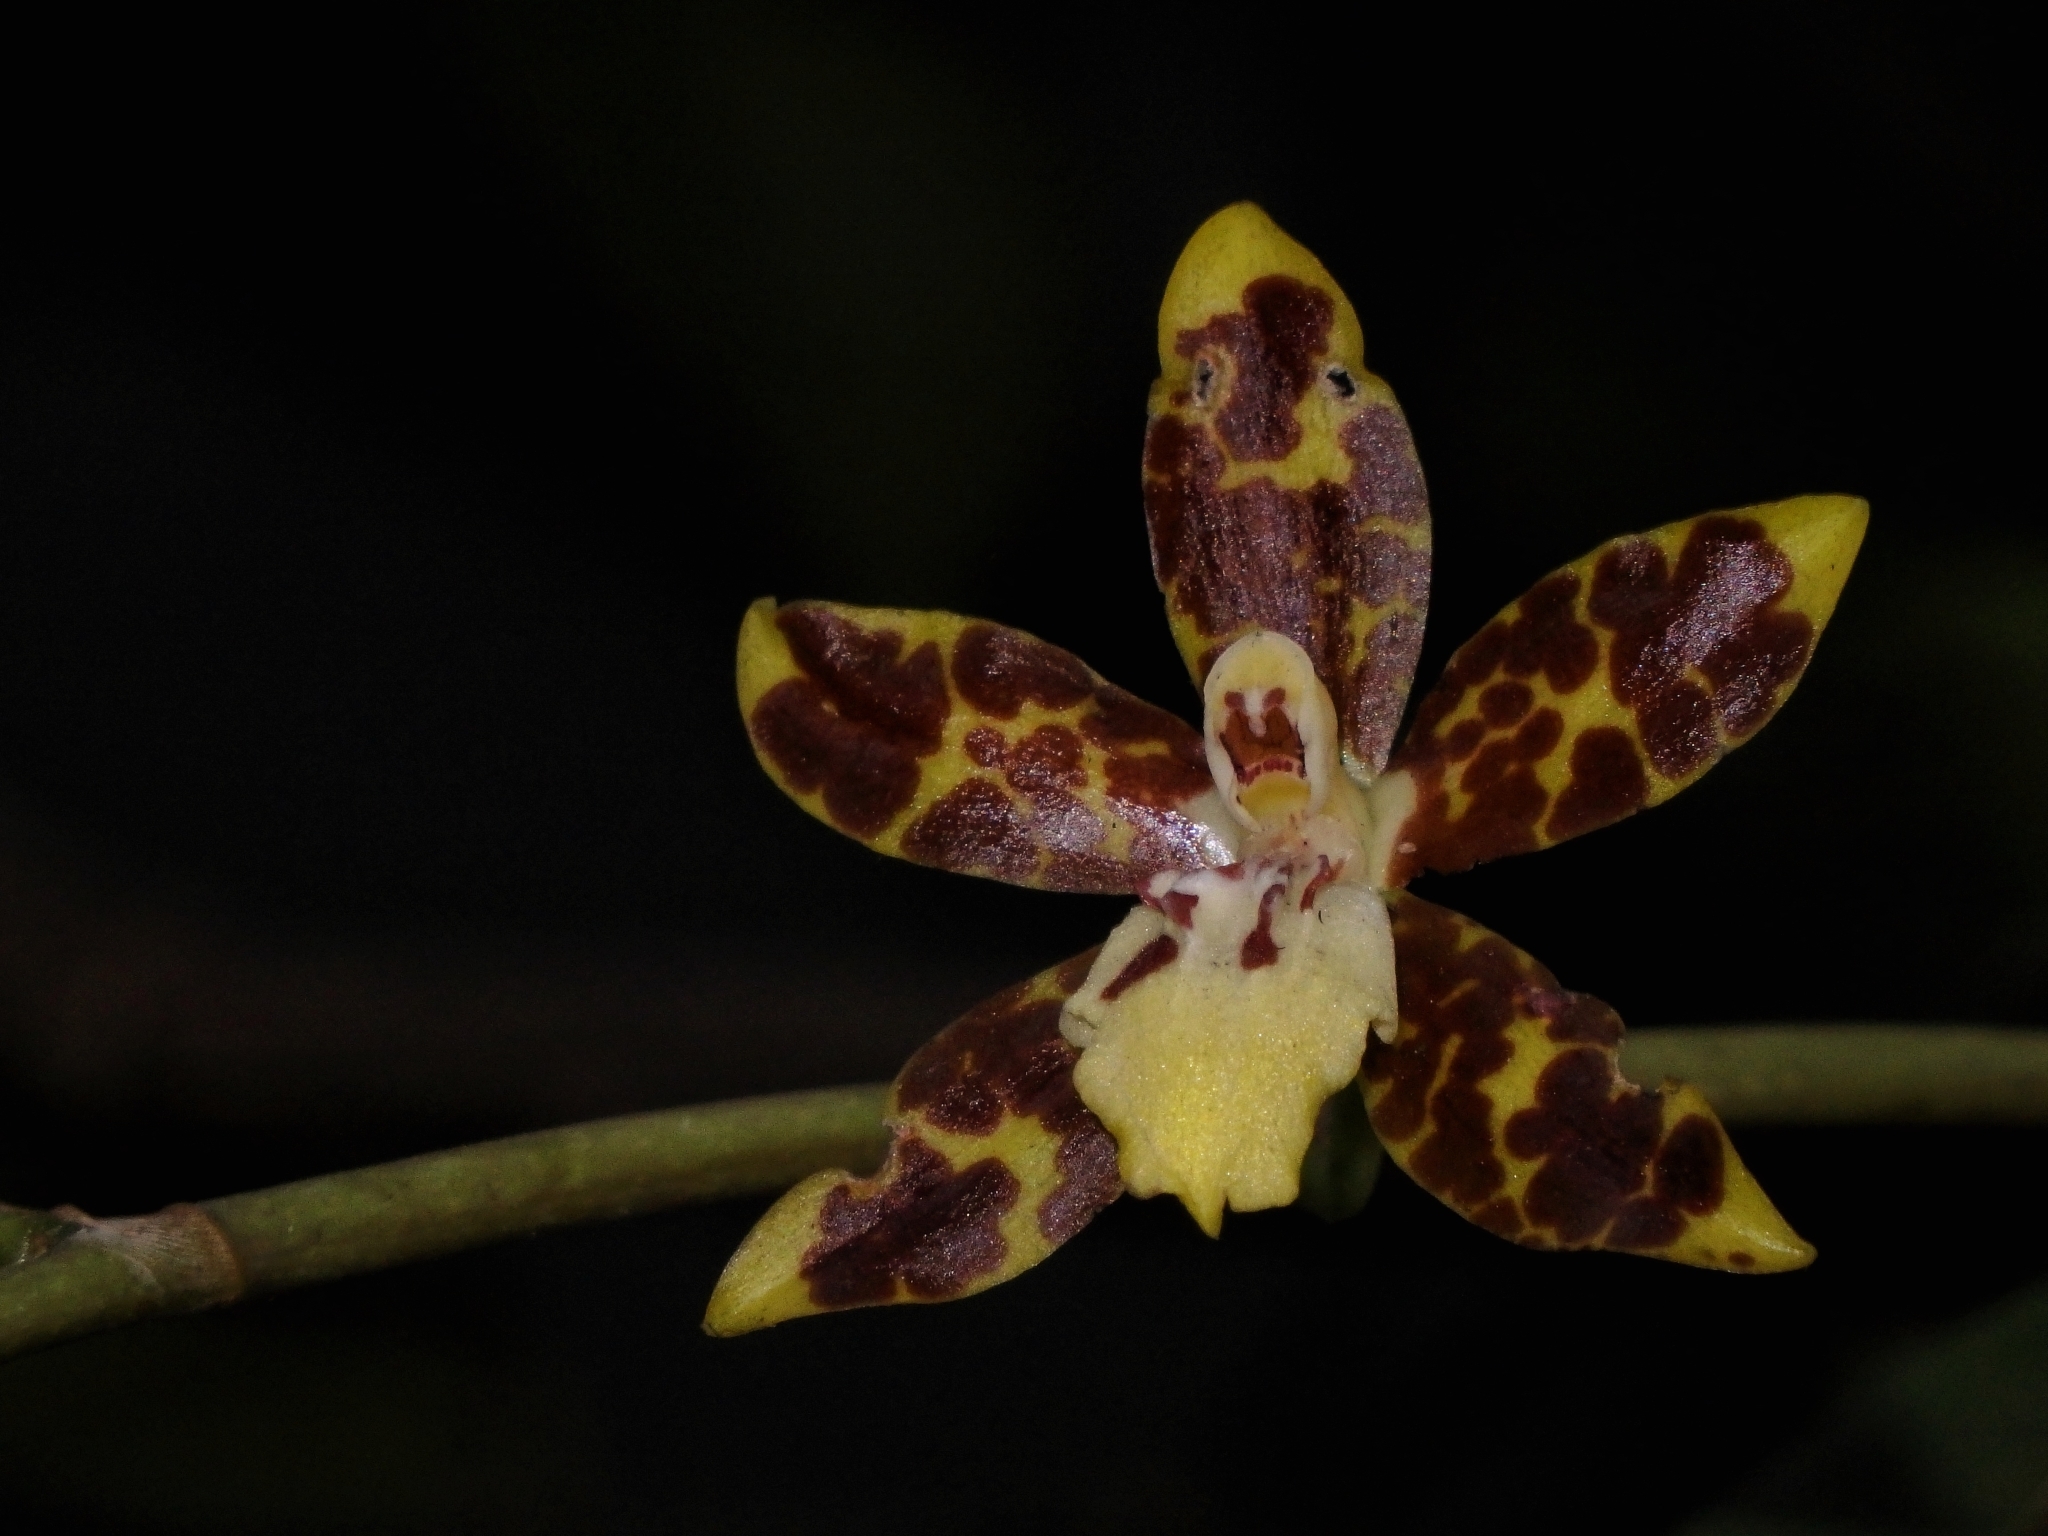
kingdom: Plantae
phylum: Tracheophyta
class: Liliopsida
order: Asparagales
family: Orchidaceae
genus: Oncidium
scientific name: Oncidium maculatum
